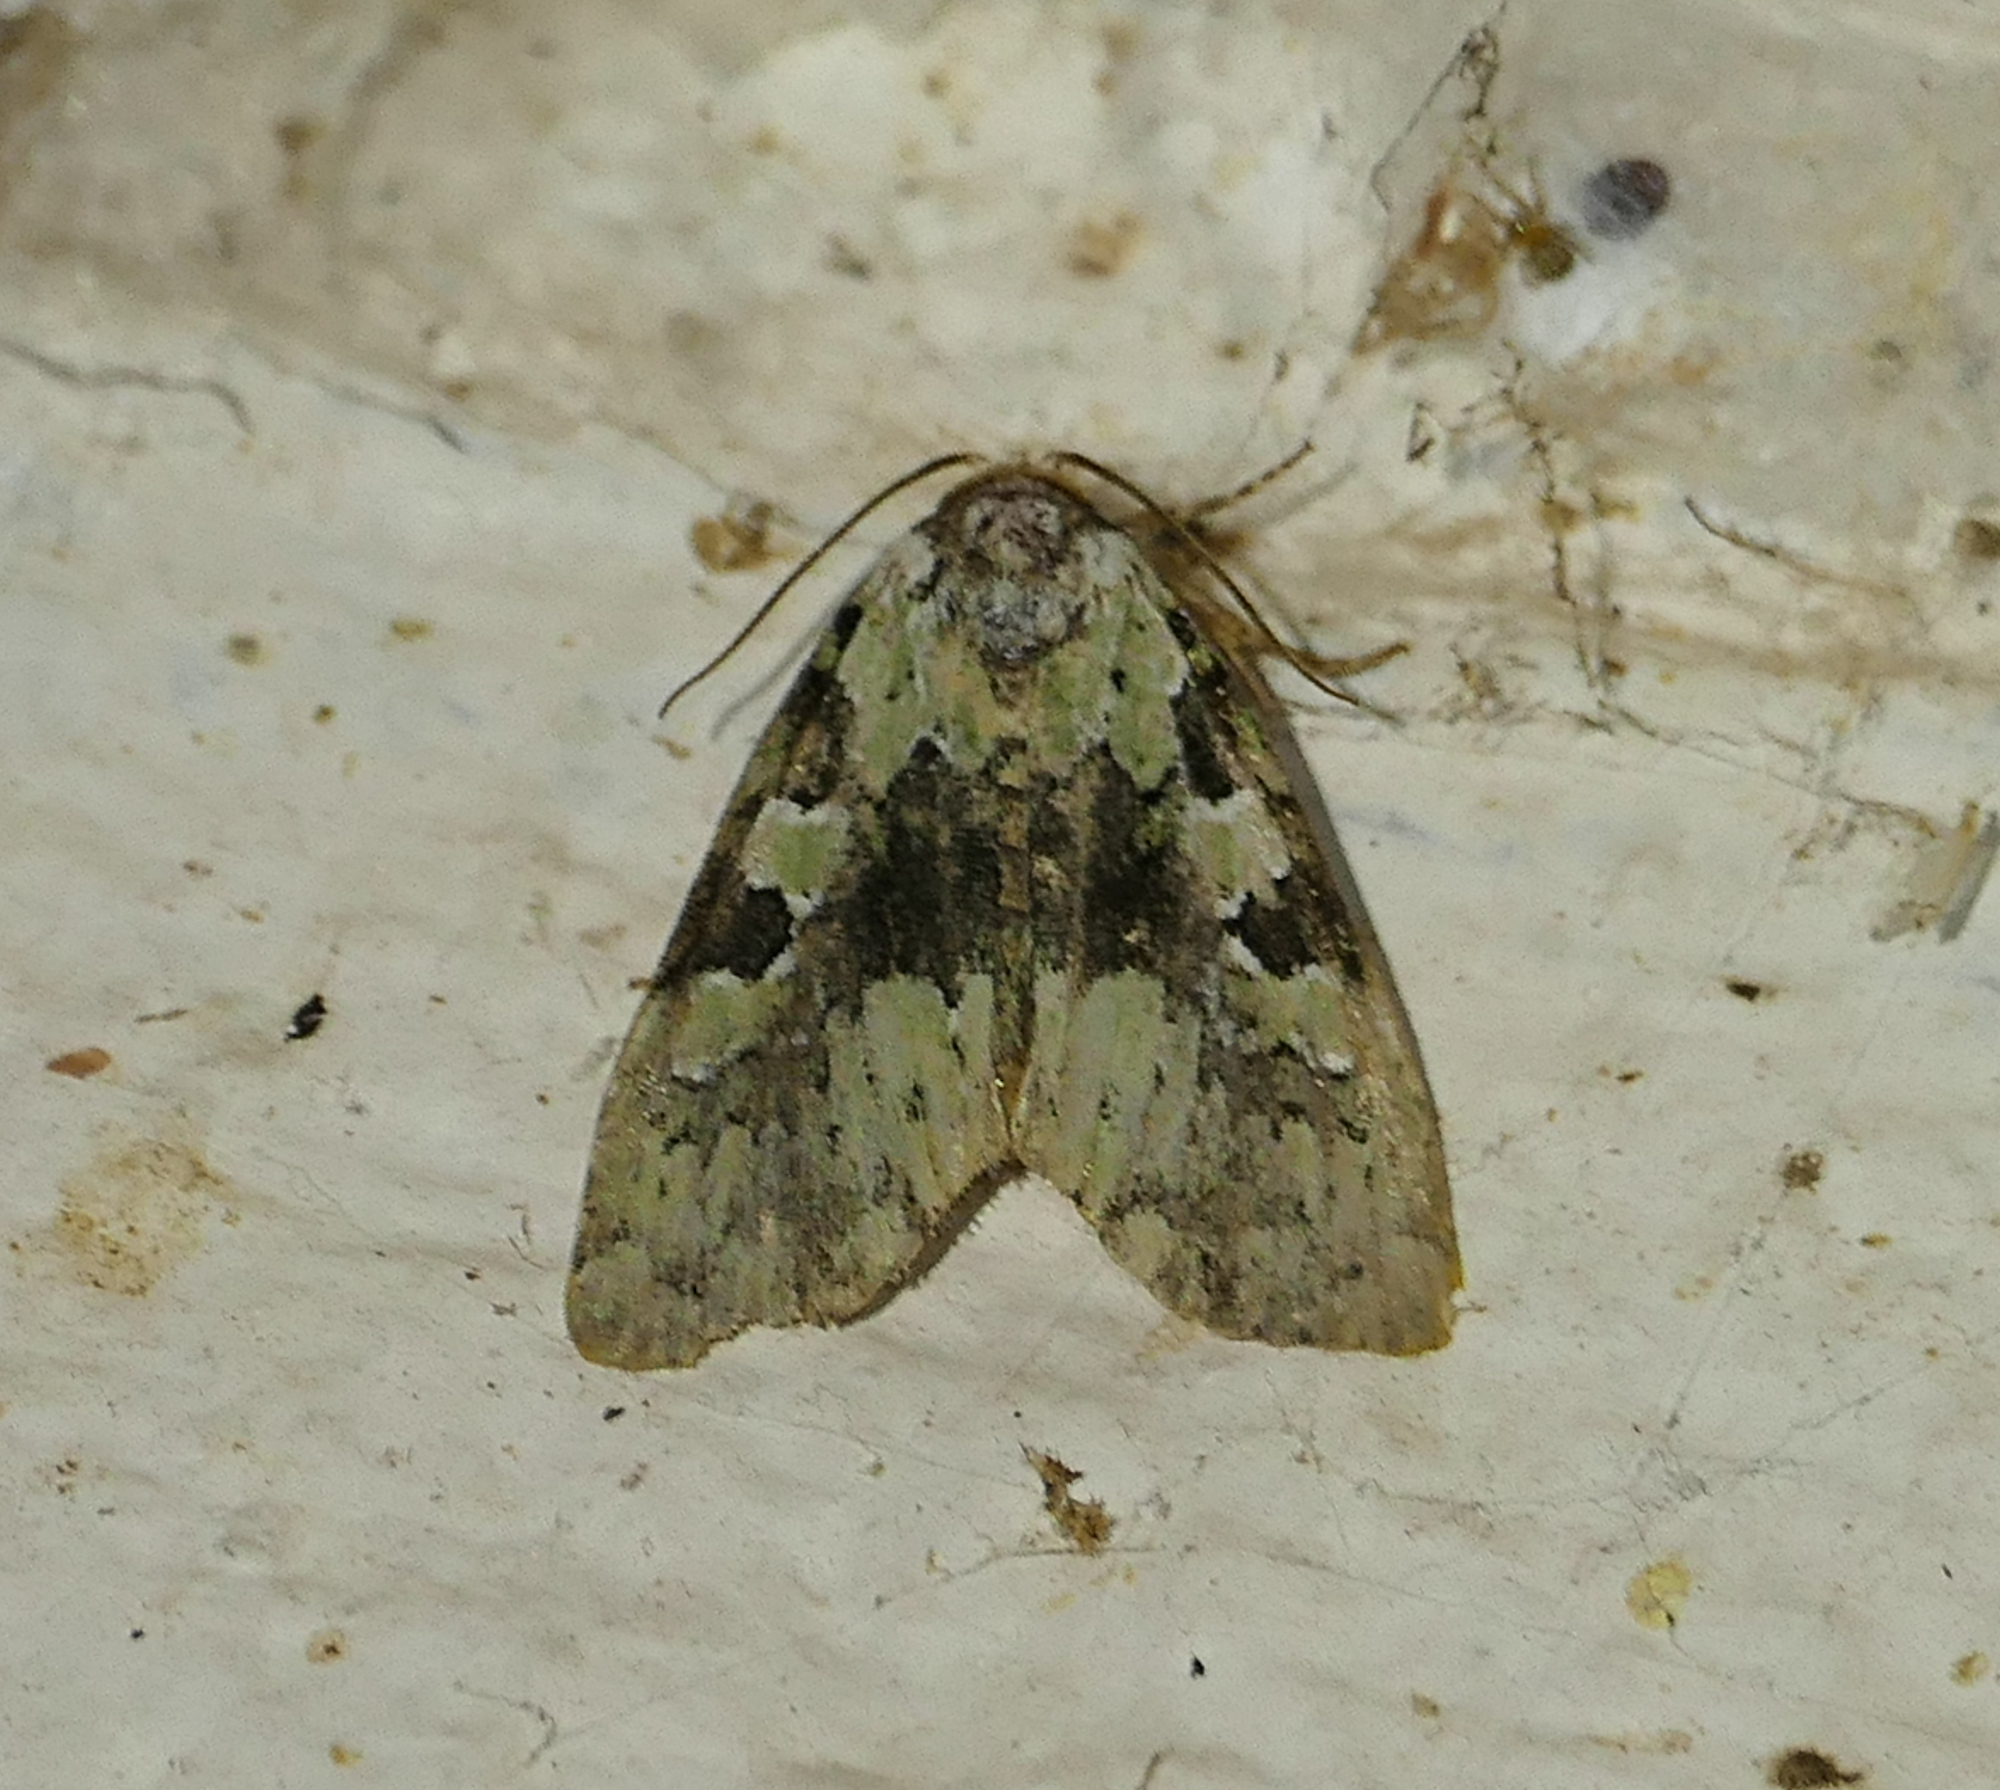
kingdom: Animalia
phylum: Arthropoda
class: Insecta
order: Lepidoptera
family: Noctuidae
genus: Leuconycta
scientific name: Leuconycta lepidula
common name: Marbled-green leuconycta moth
